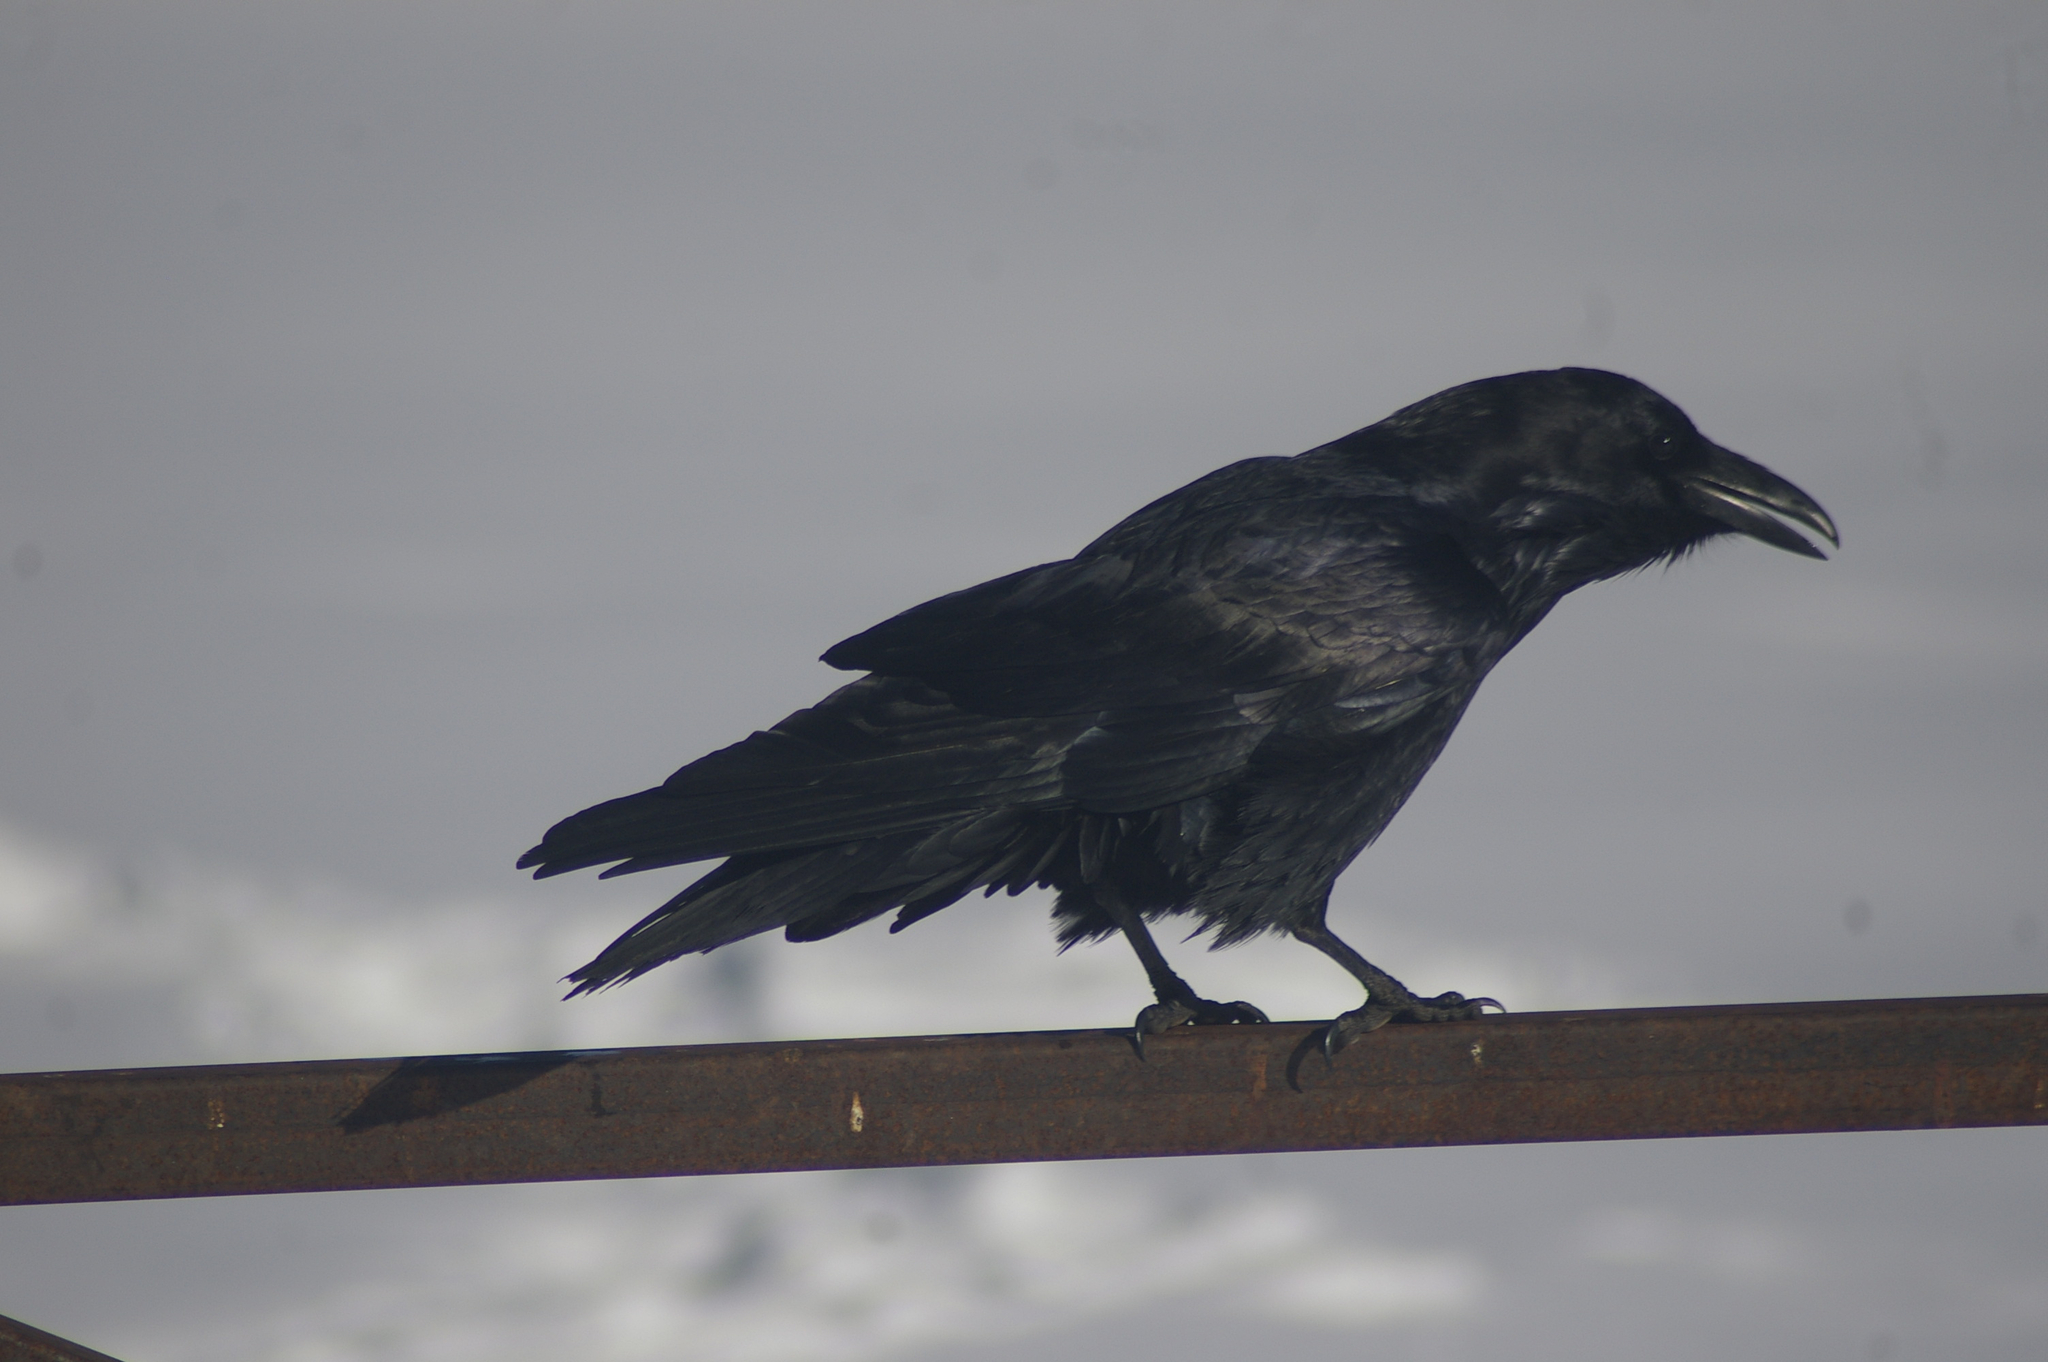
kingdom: Animalia
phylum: Chordata
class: Aves
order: Passeriformes
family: Corvidae
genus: Corvus
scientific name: Corvus corax
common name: Common raven
